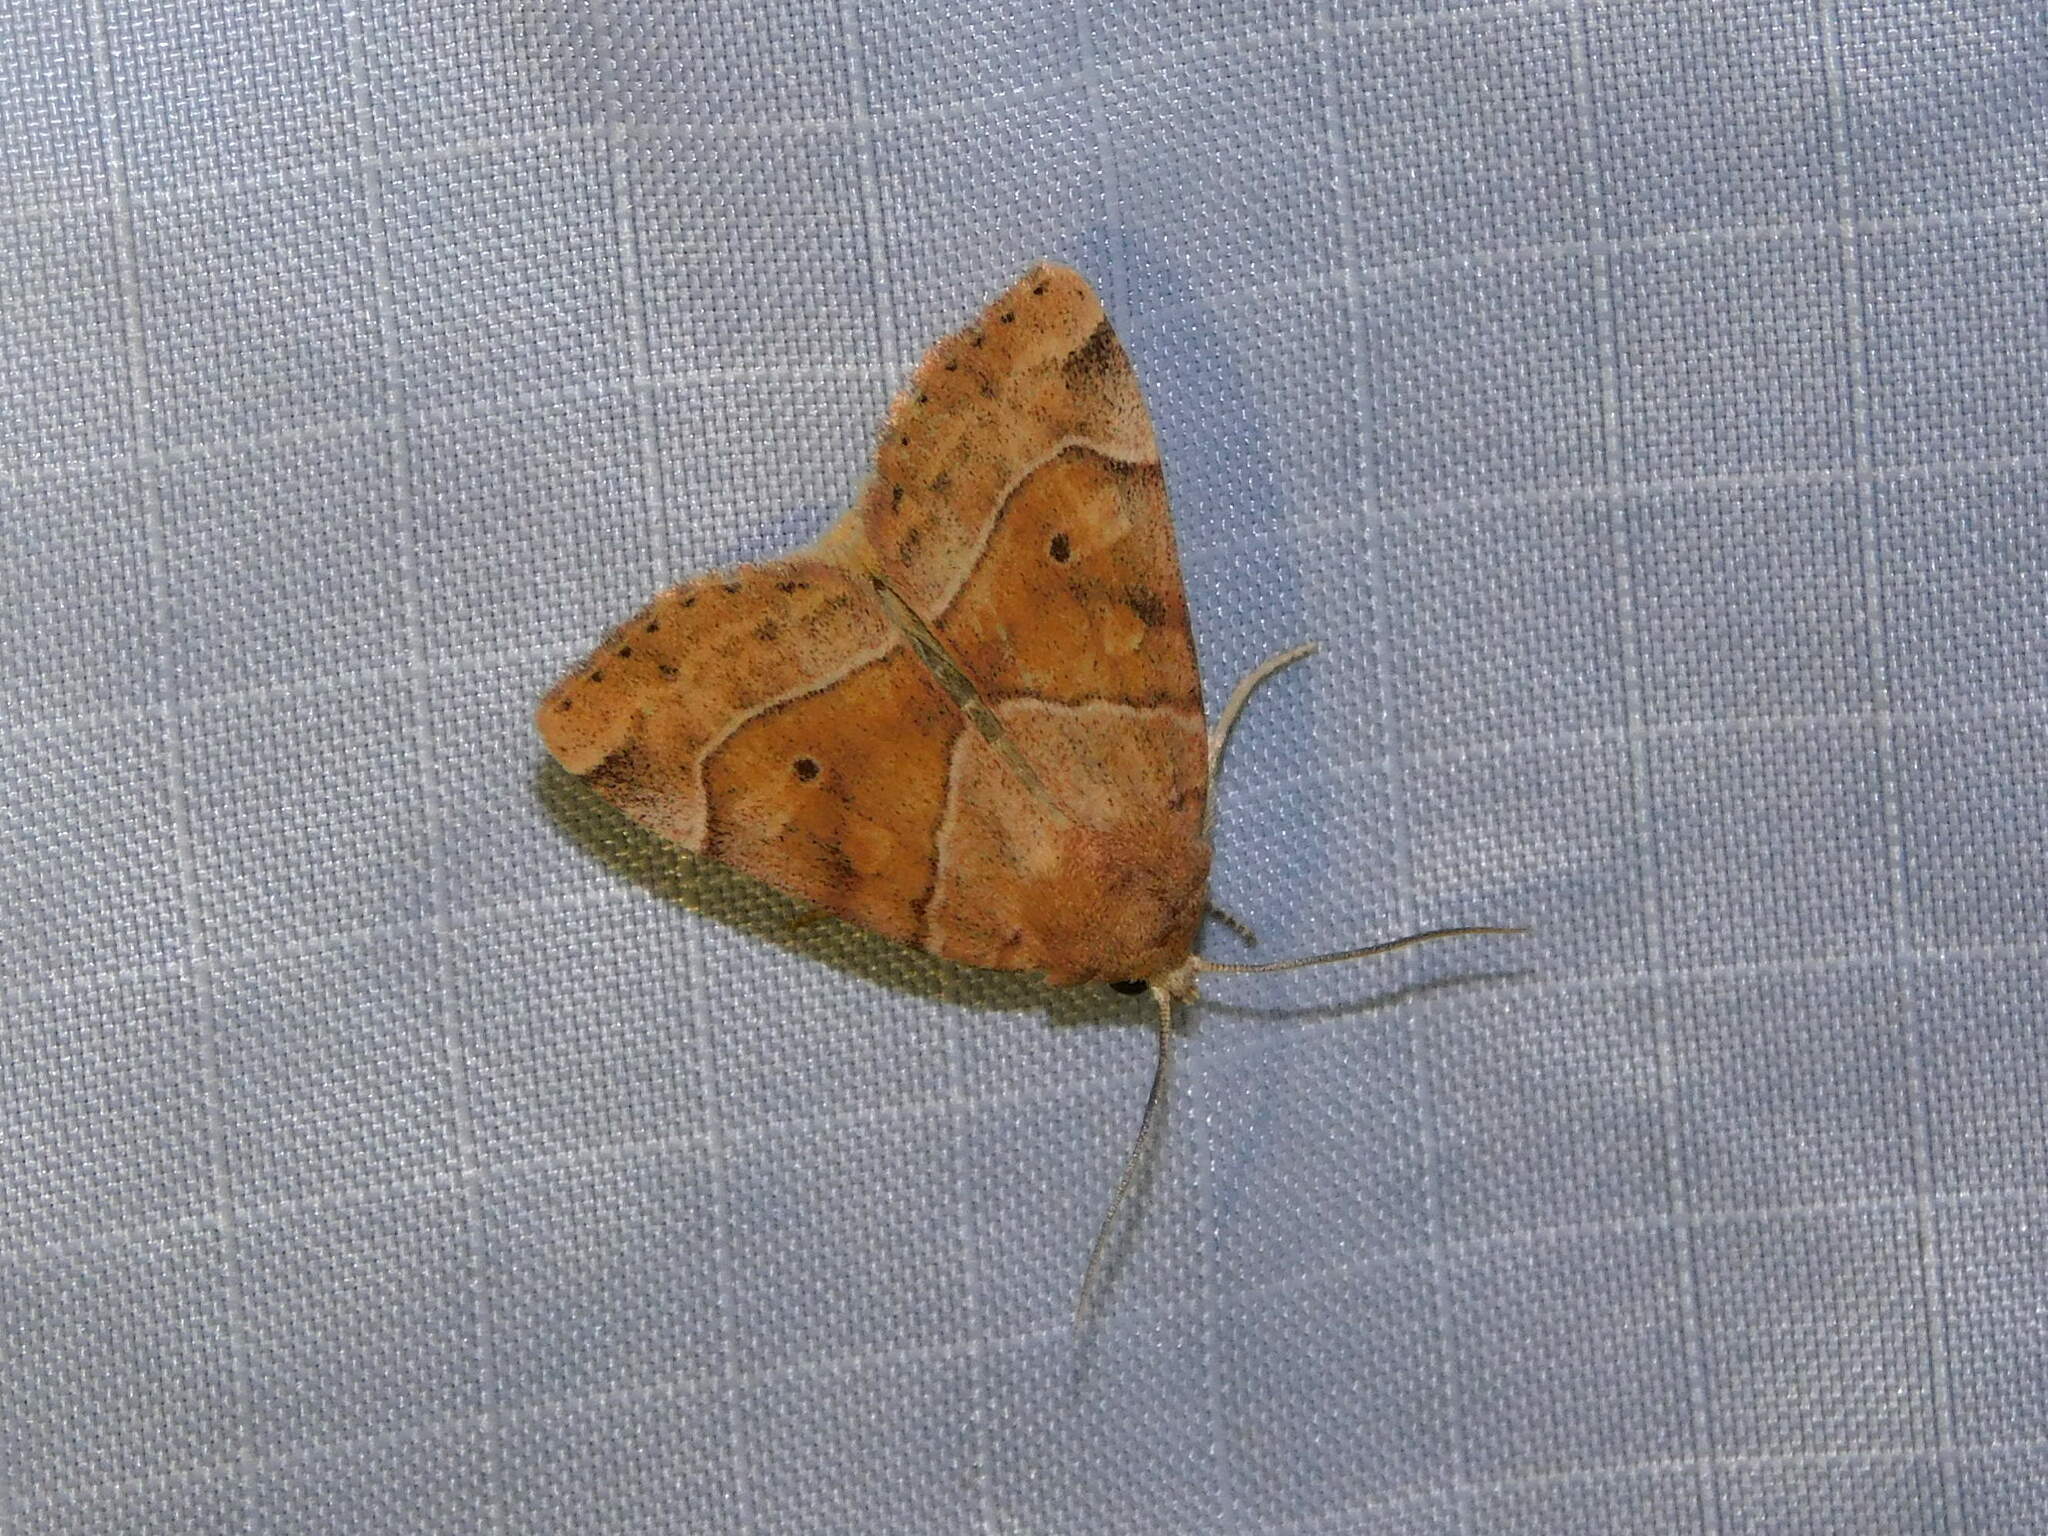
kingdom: Animalia
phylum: Arthropoda
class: Insecta
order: Lepidoptera
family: Noctuidae
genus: Cosmia
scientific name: Cosmia trapezina
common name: Dun-bar
